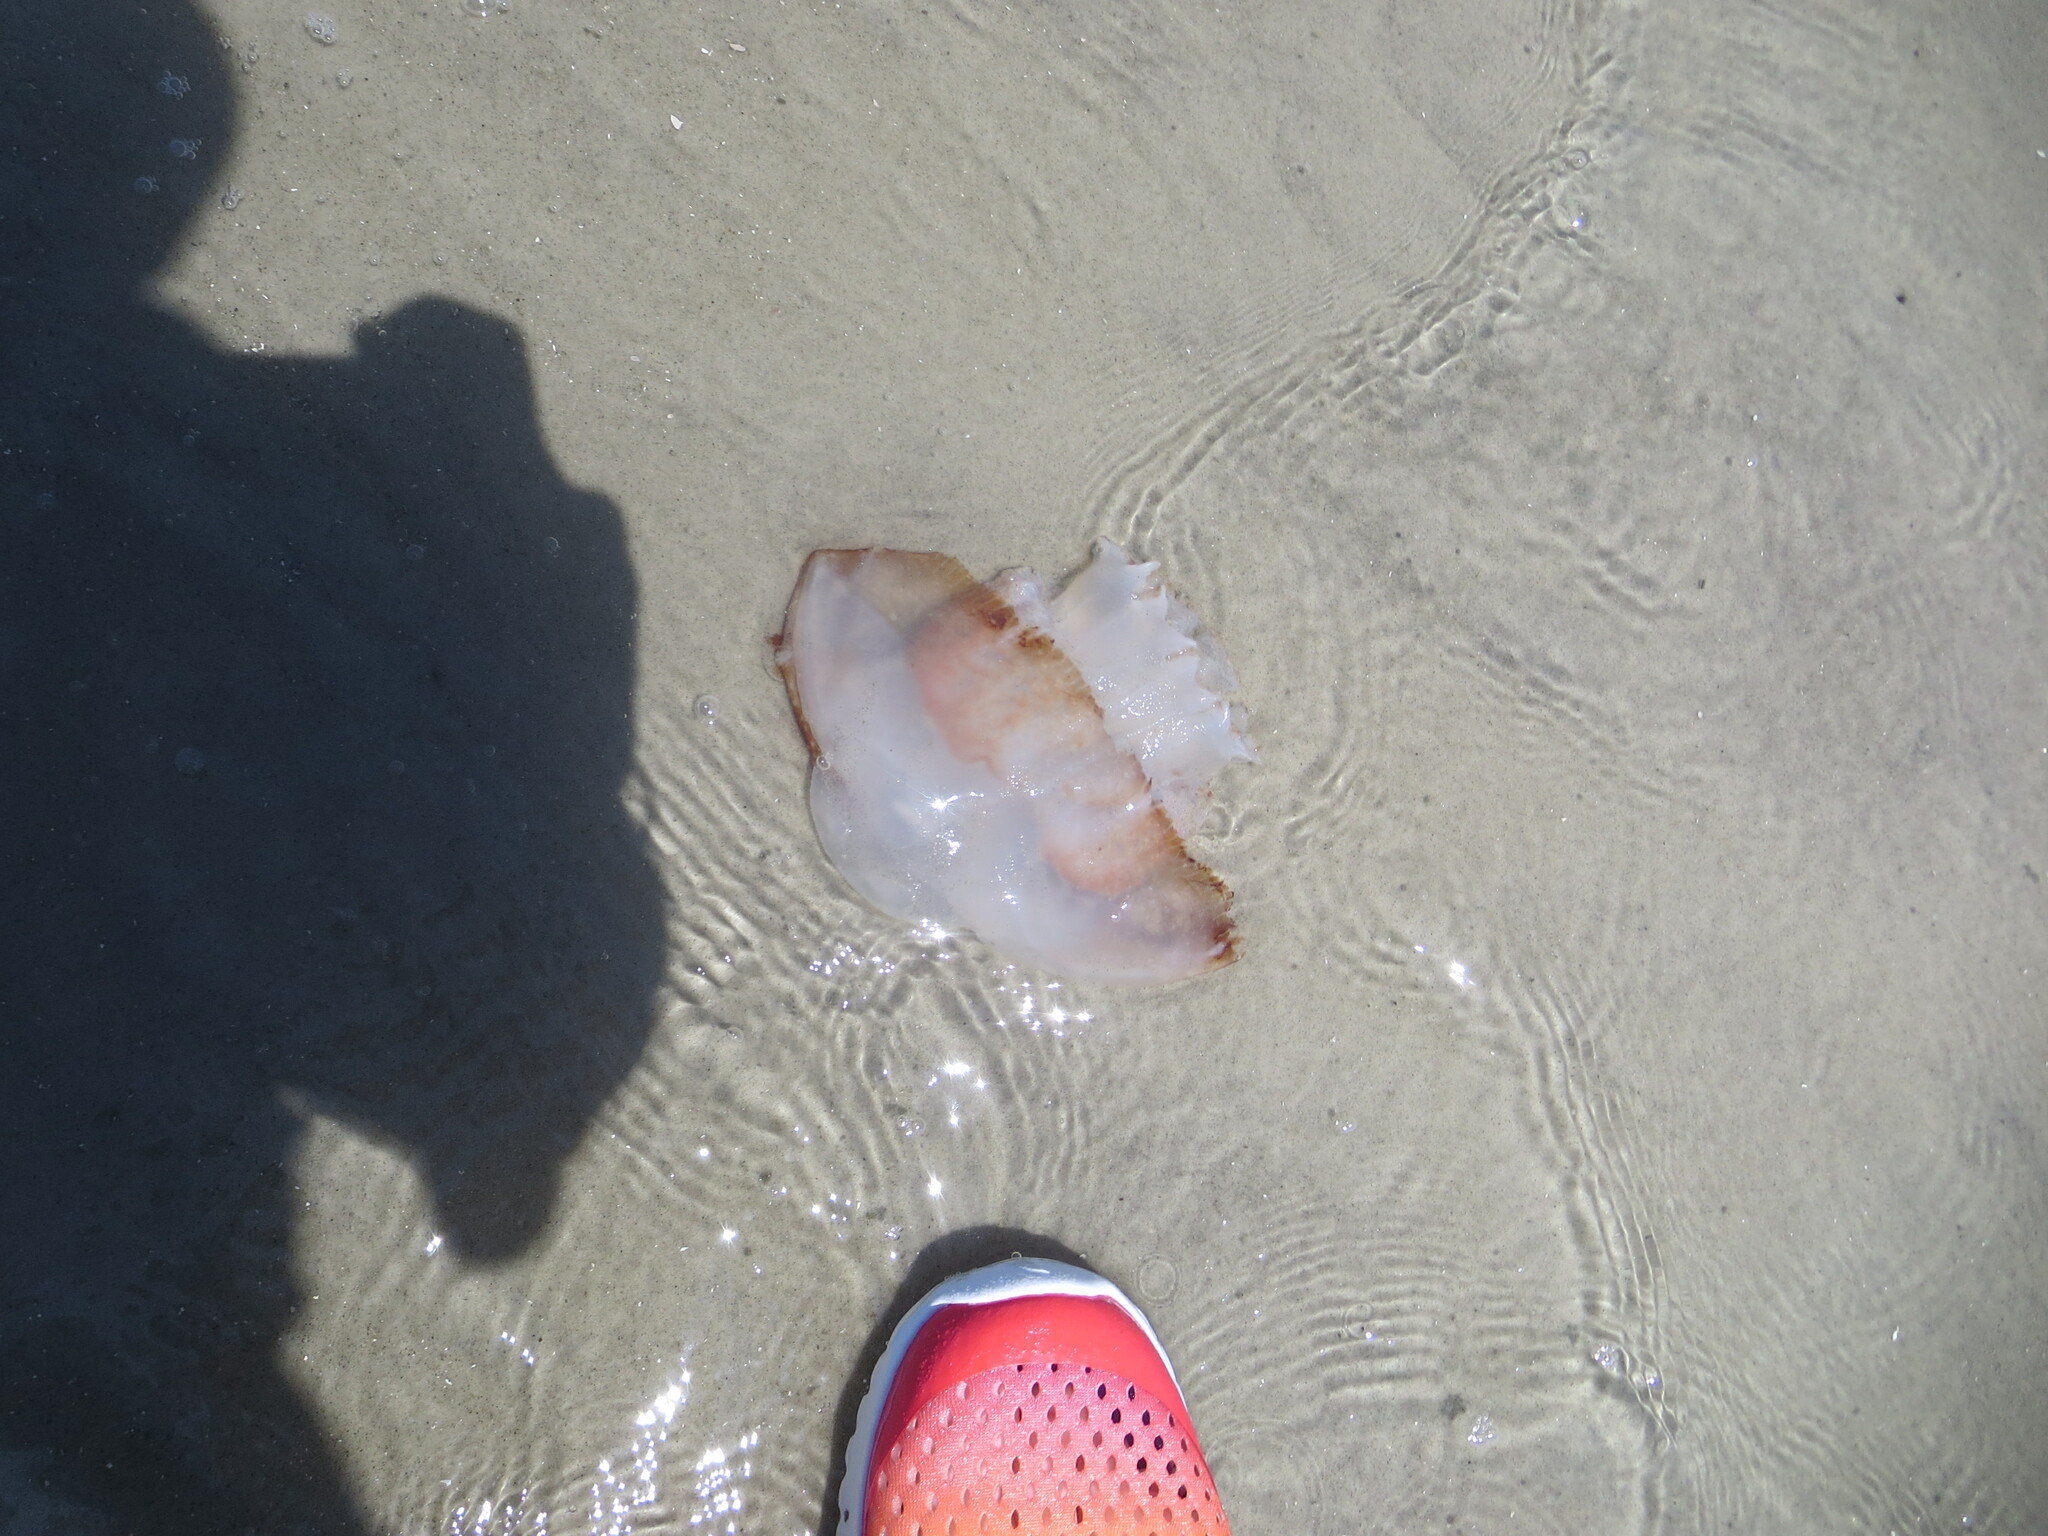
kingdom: Animalia
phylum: Cnidaria
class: Scyphozoa
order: Rhizostomeae
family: Stomolophidae
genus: Stomolophus
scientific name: Stomolophus meleagris
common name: Cabbagehead
